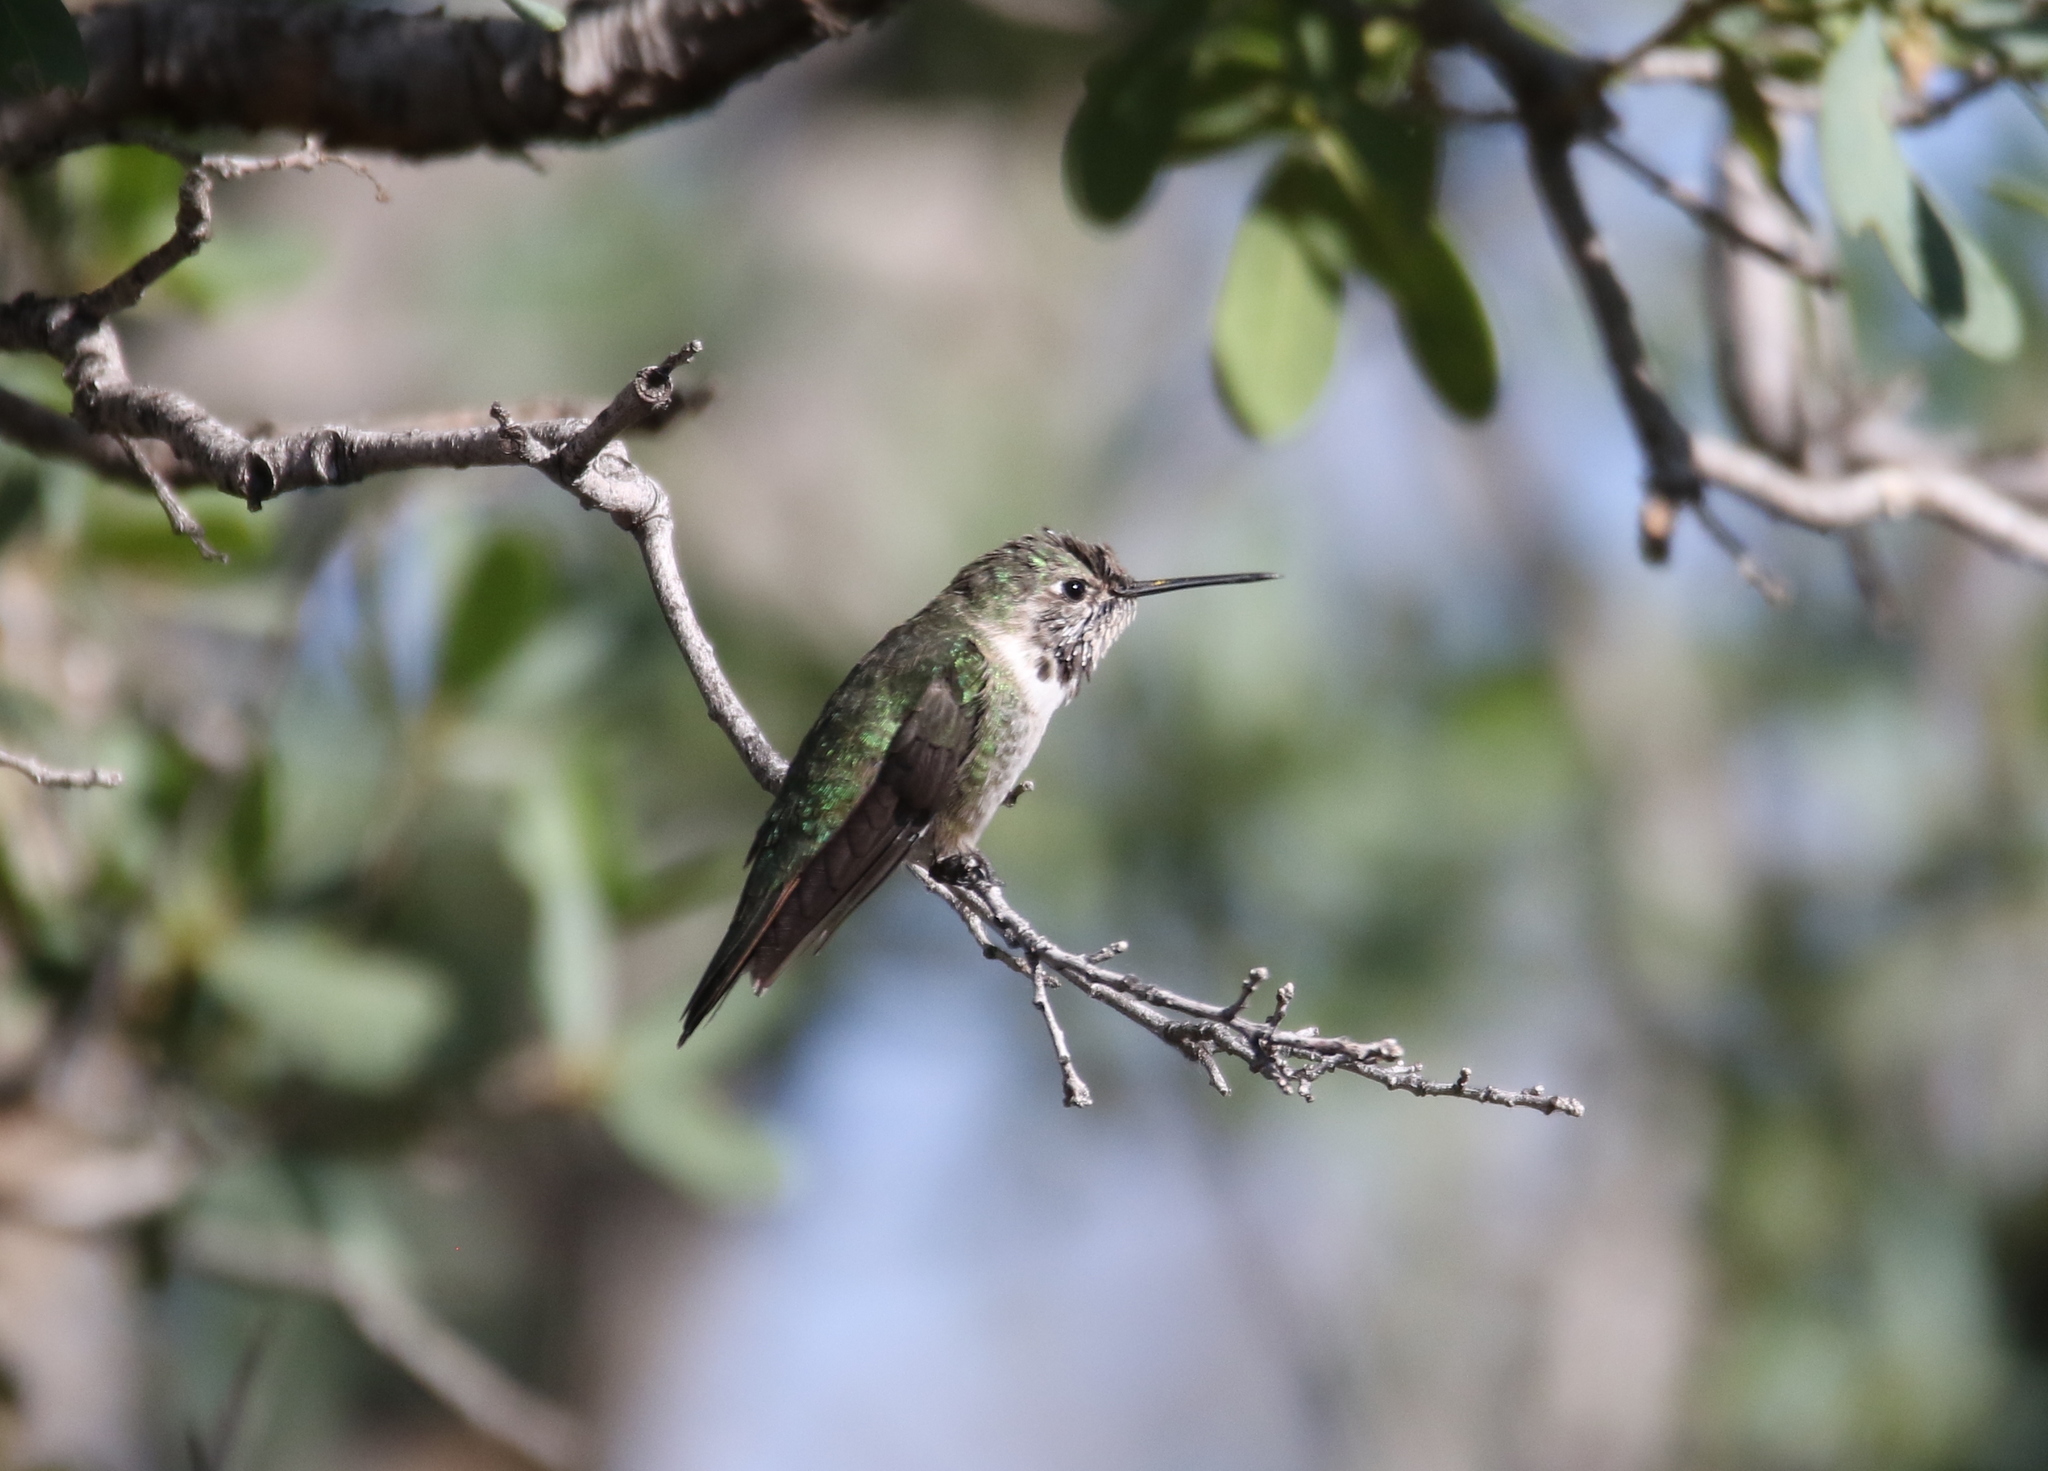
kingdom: Animalia
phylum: Chordata
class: Aves
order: Apodiformes
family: Trochilidae
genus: Selasphorus
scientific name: Selasphorus platycercus
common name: Broad-tailed hummingbird
